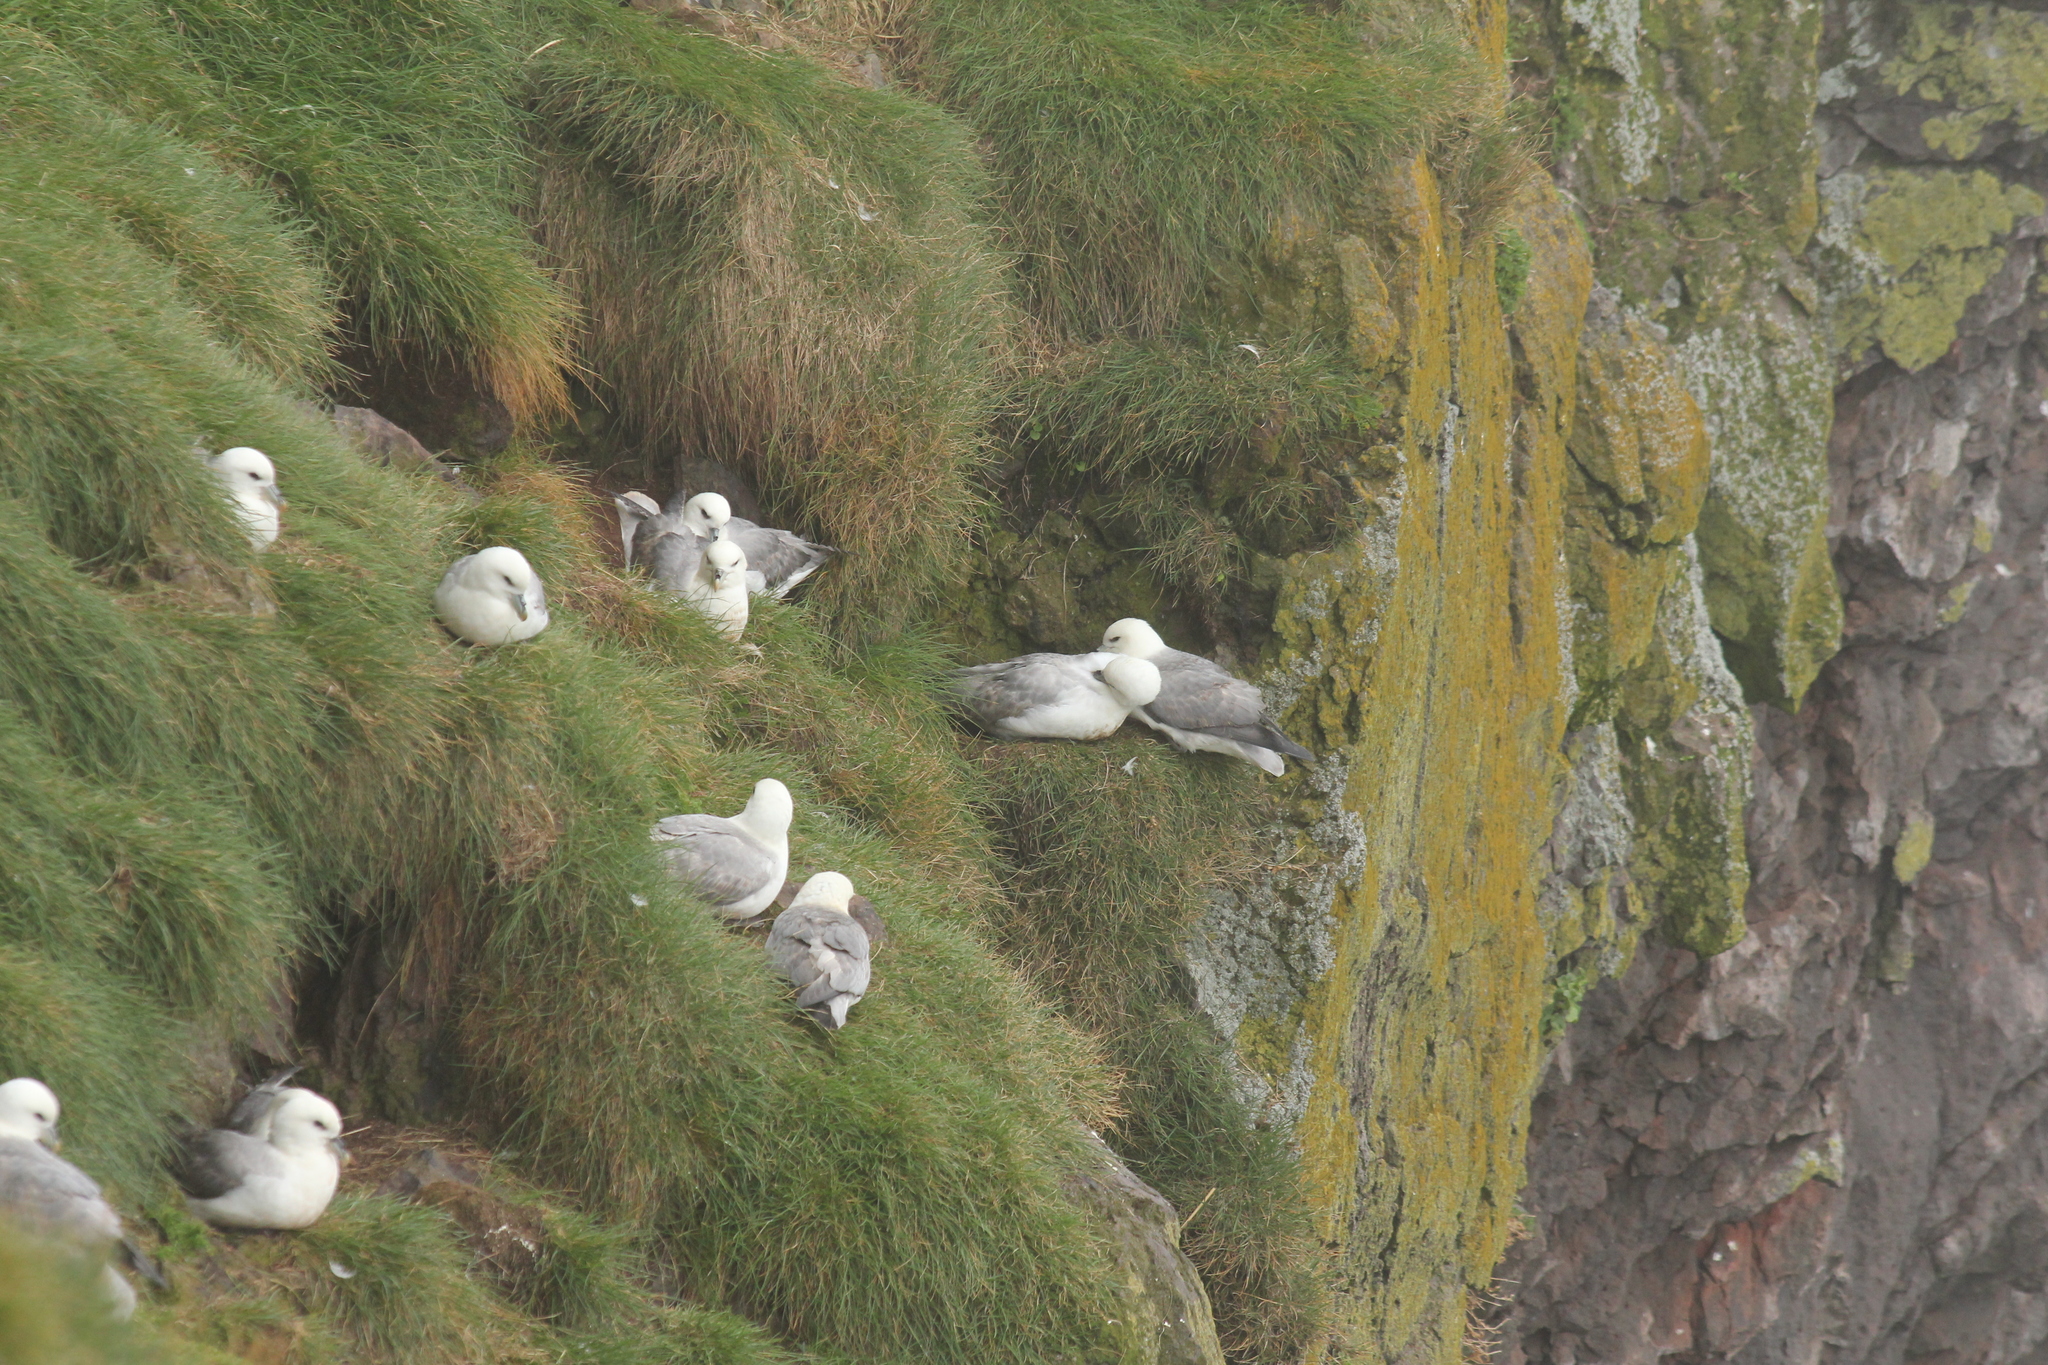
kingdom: Animalia
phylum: Chordata
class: Aves
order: Procellariiformes
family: Procellariidae
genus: Fulmarus
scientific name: Fulmarus glacialis
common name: Northern fulmar
